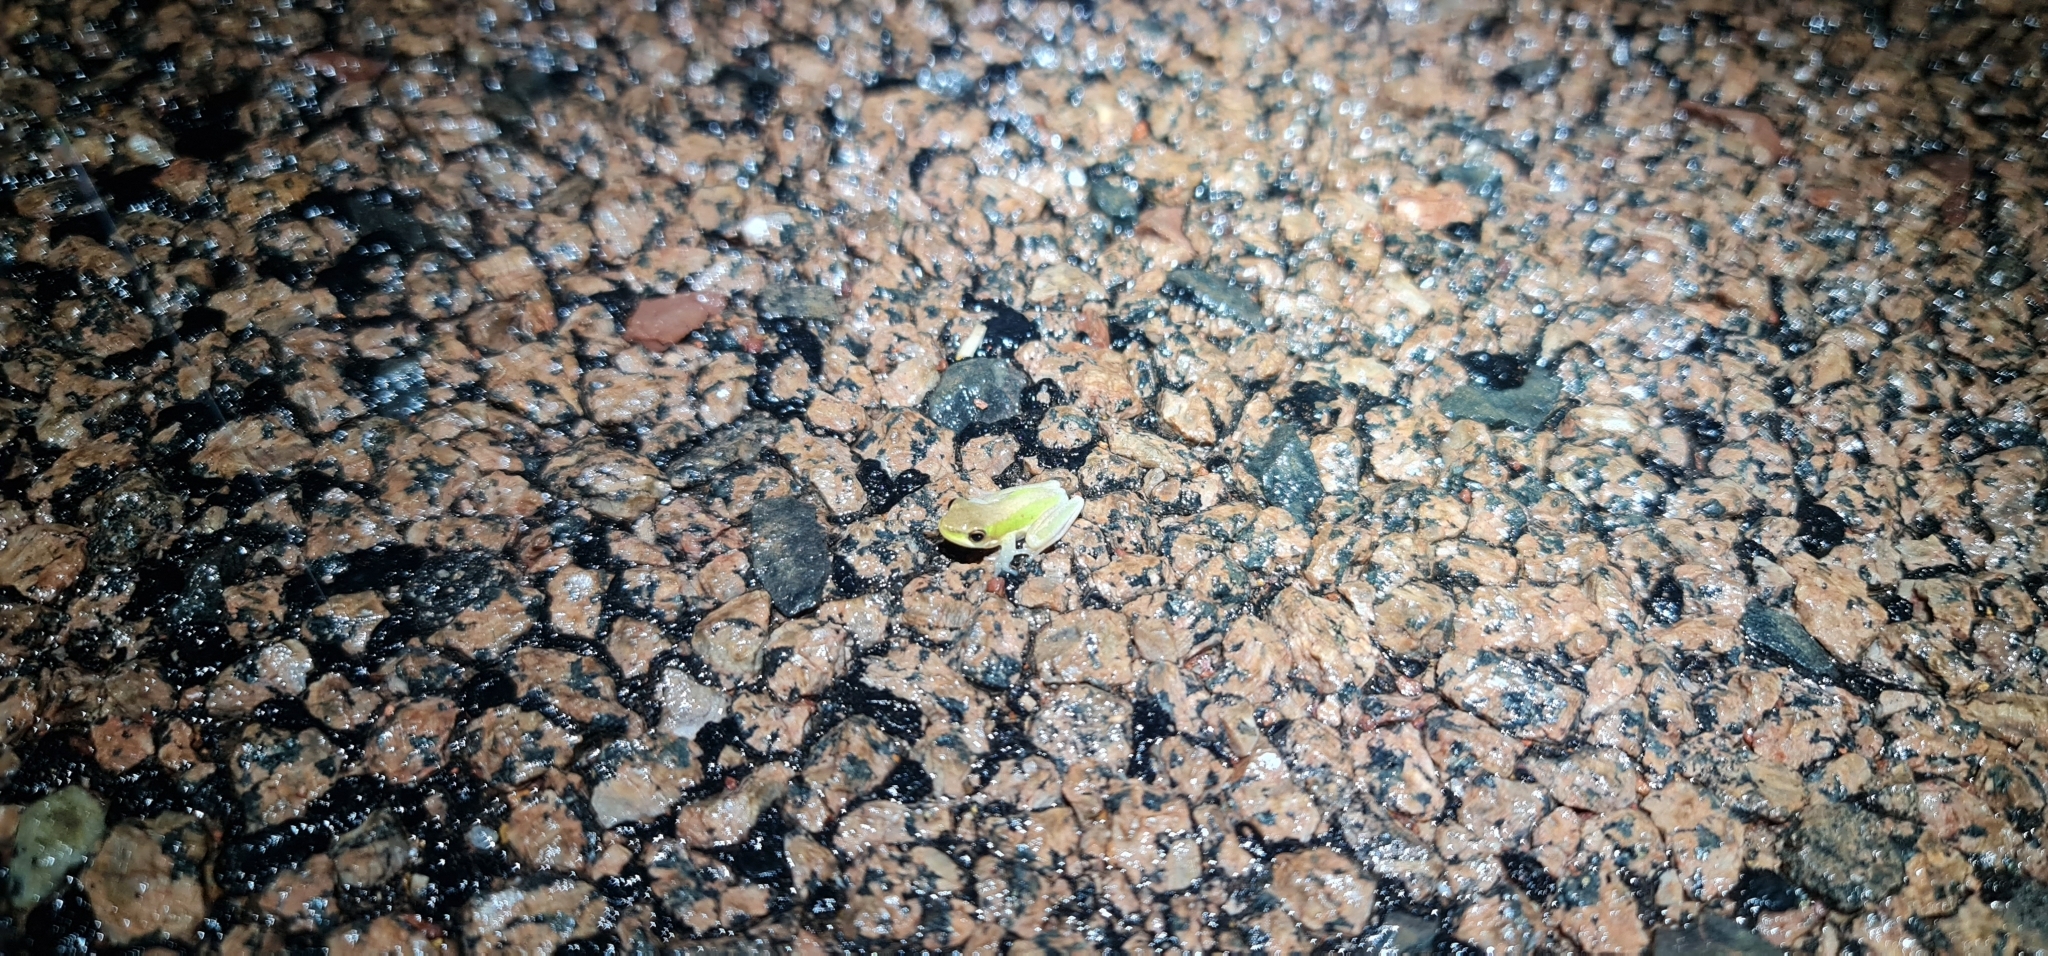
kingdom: Animalia
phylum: Chordata
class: Amphibia
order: Anura
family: Pelodryadidae
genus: Litoria
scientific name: Litoria bicolor
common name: Green reed frog
